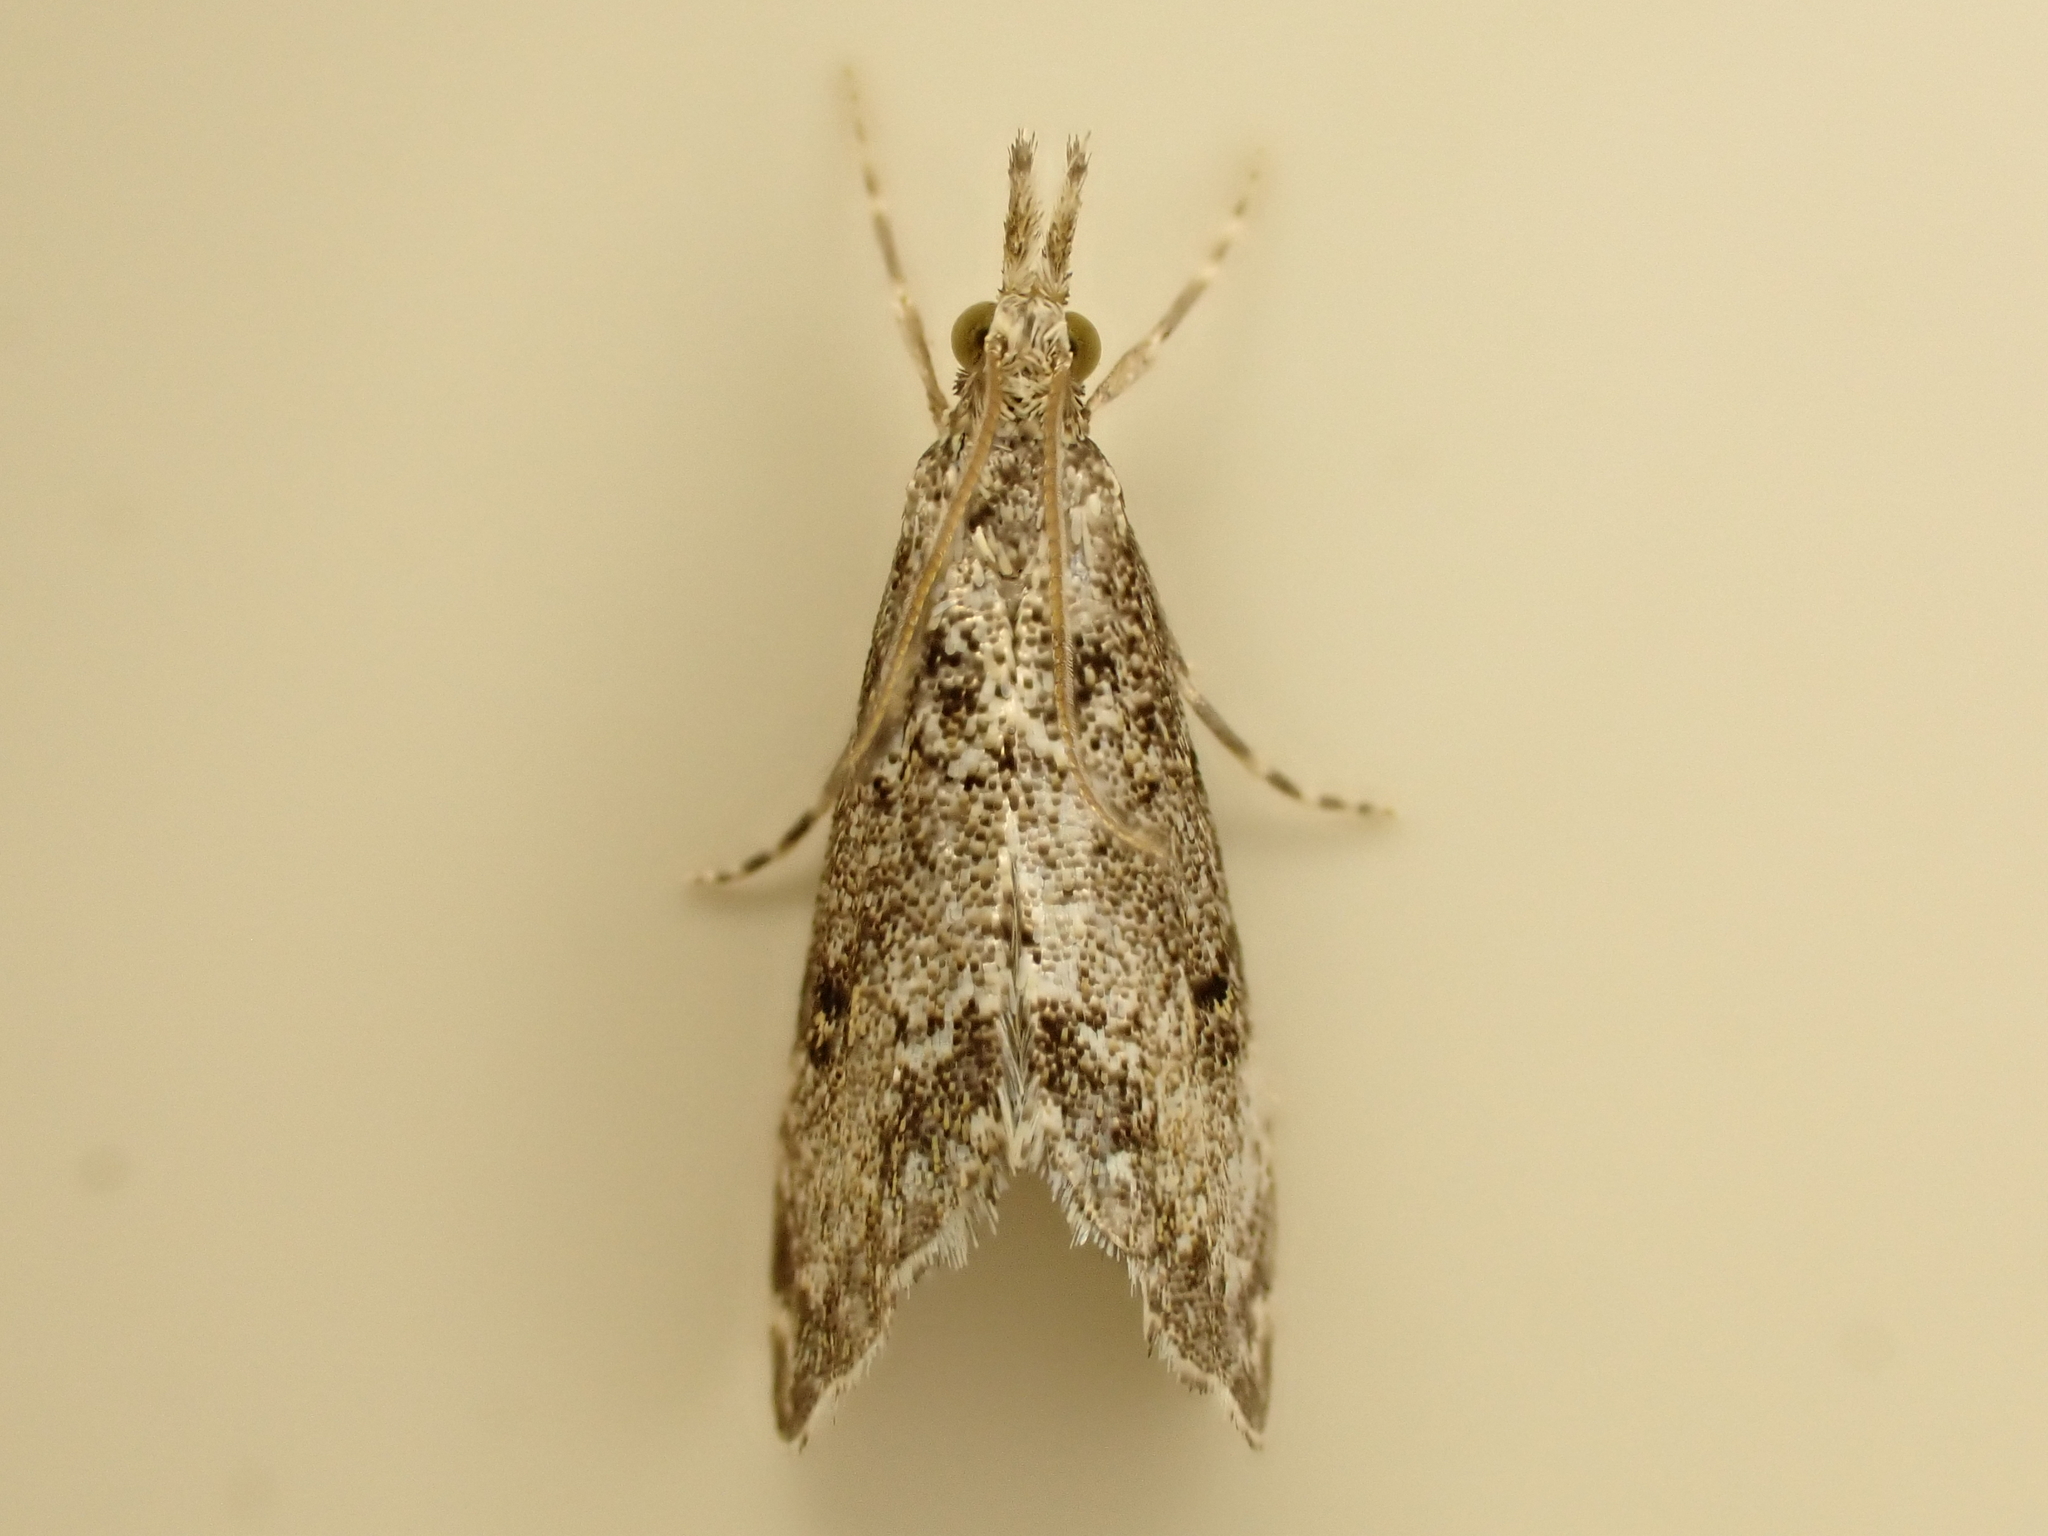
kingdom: Animalia
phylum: Arthropoda
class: Insecta
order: Lepidoptera
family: Crambidae
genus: Glaucocharis
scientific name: Glaucocharis elaina
